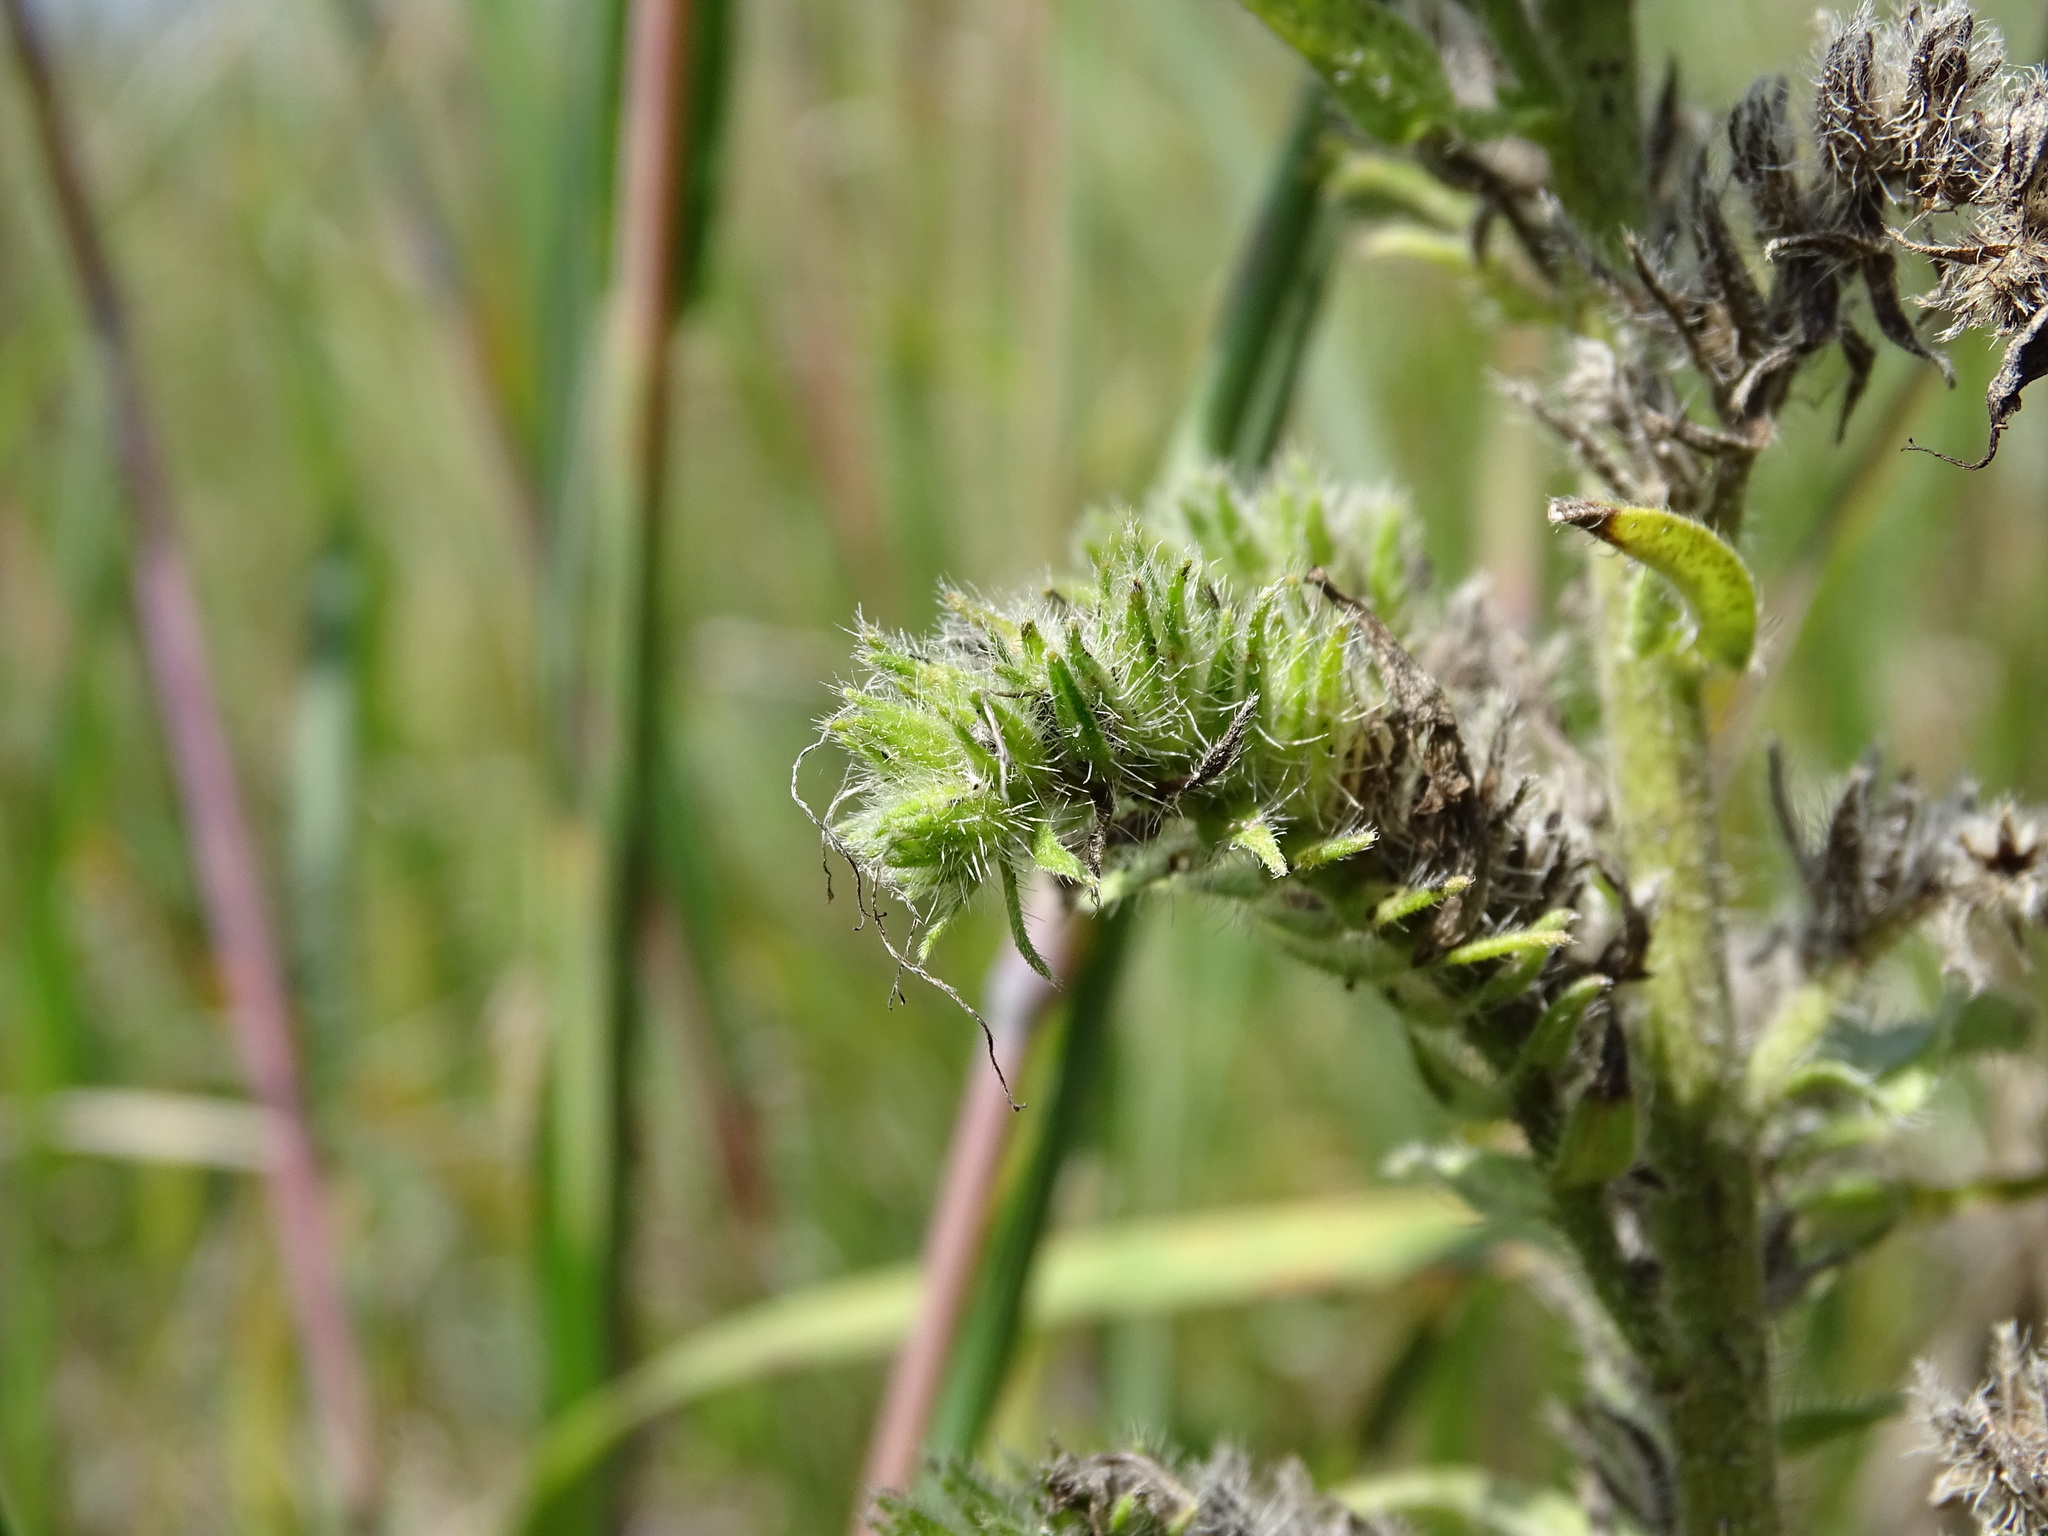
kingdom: Plantae
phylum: Tracheophyta
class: Magnoliopsida
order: Boraginales
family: Boraginaceae
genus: Echium
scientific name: Echium vulgare
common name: Common viper's bugloss
